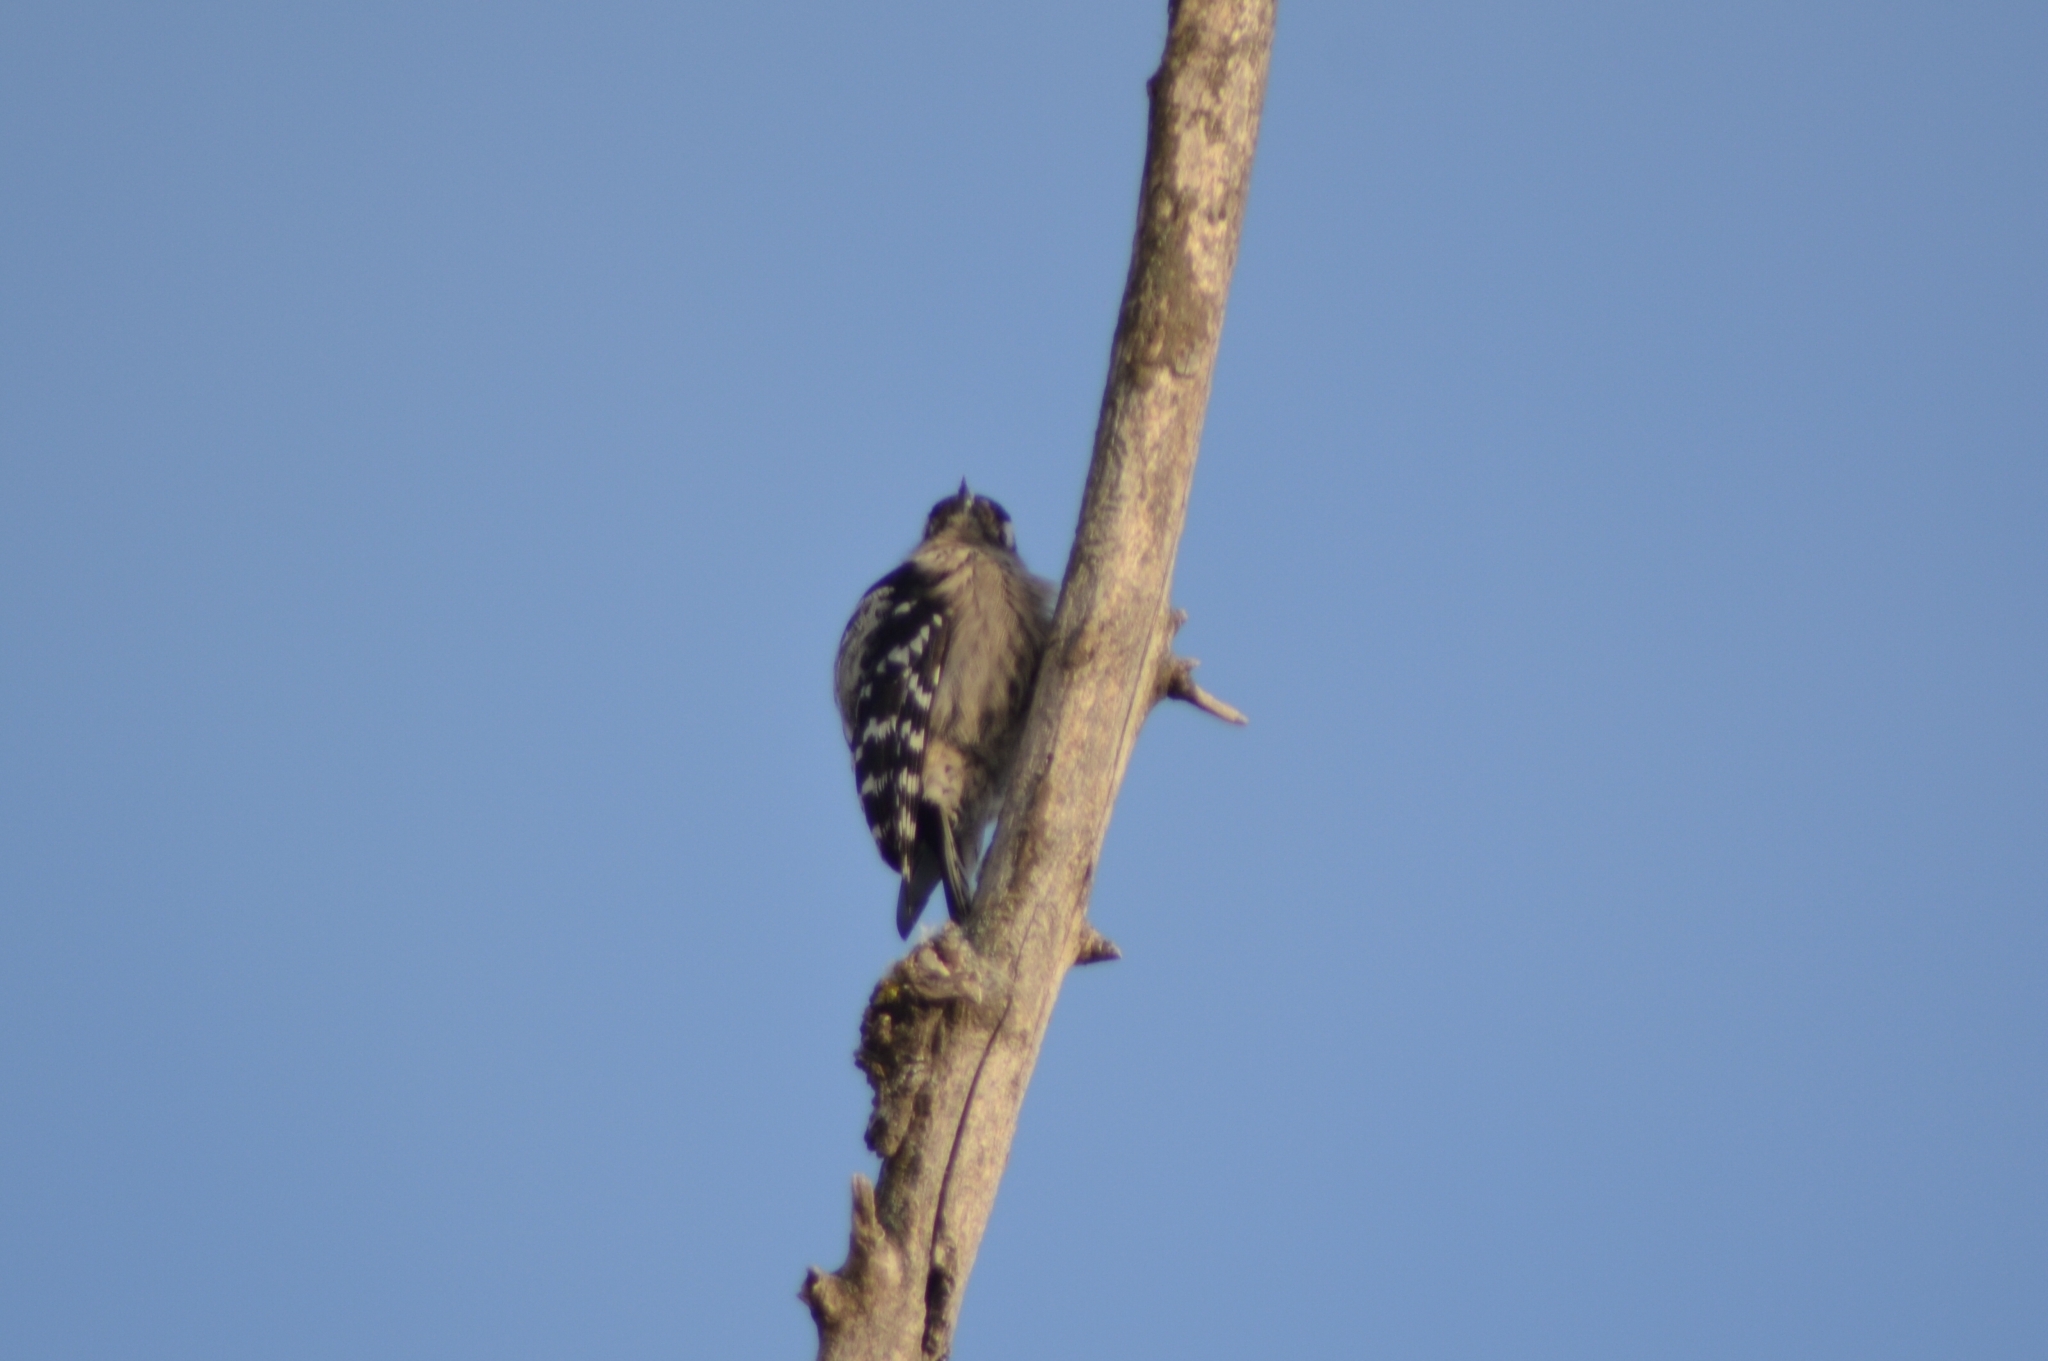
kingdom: Animalia
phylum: Chordata
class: Aves
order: Piciformes
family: Picidae
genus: Dryobates
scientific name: Dryobates minor
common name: Lesser spotted woodpecker
